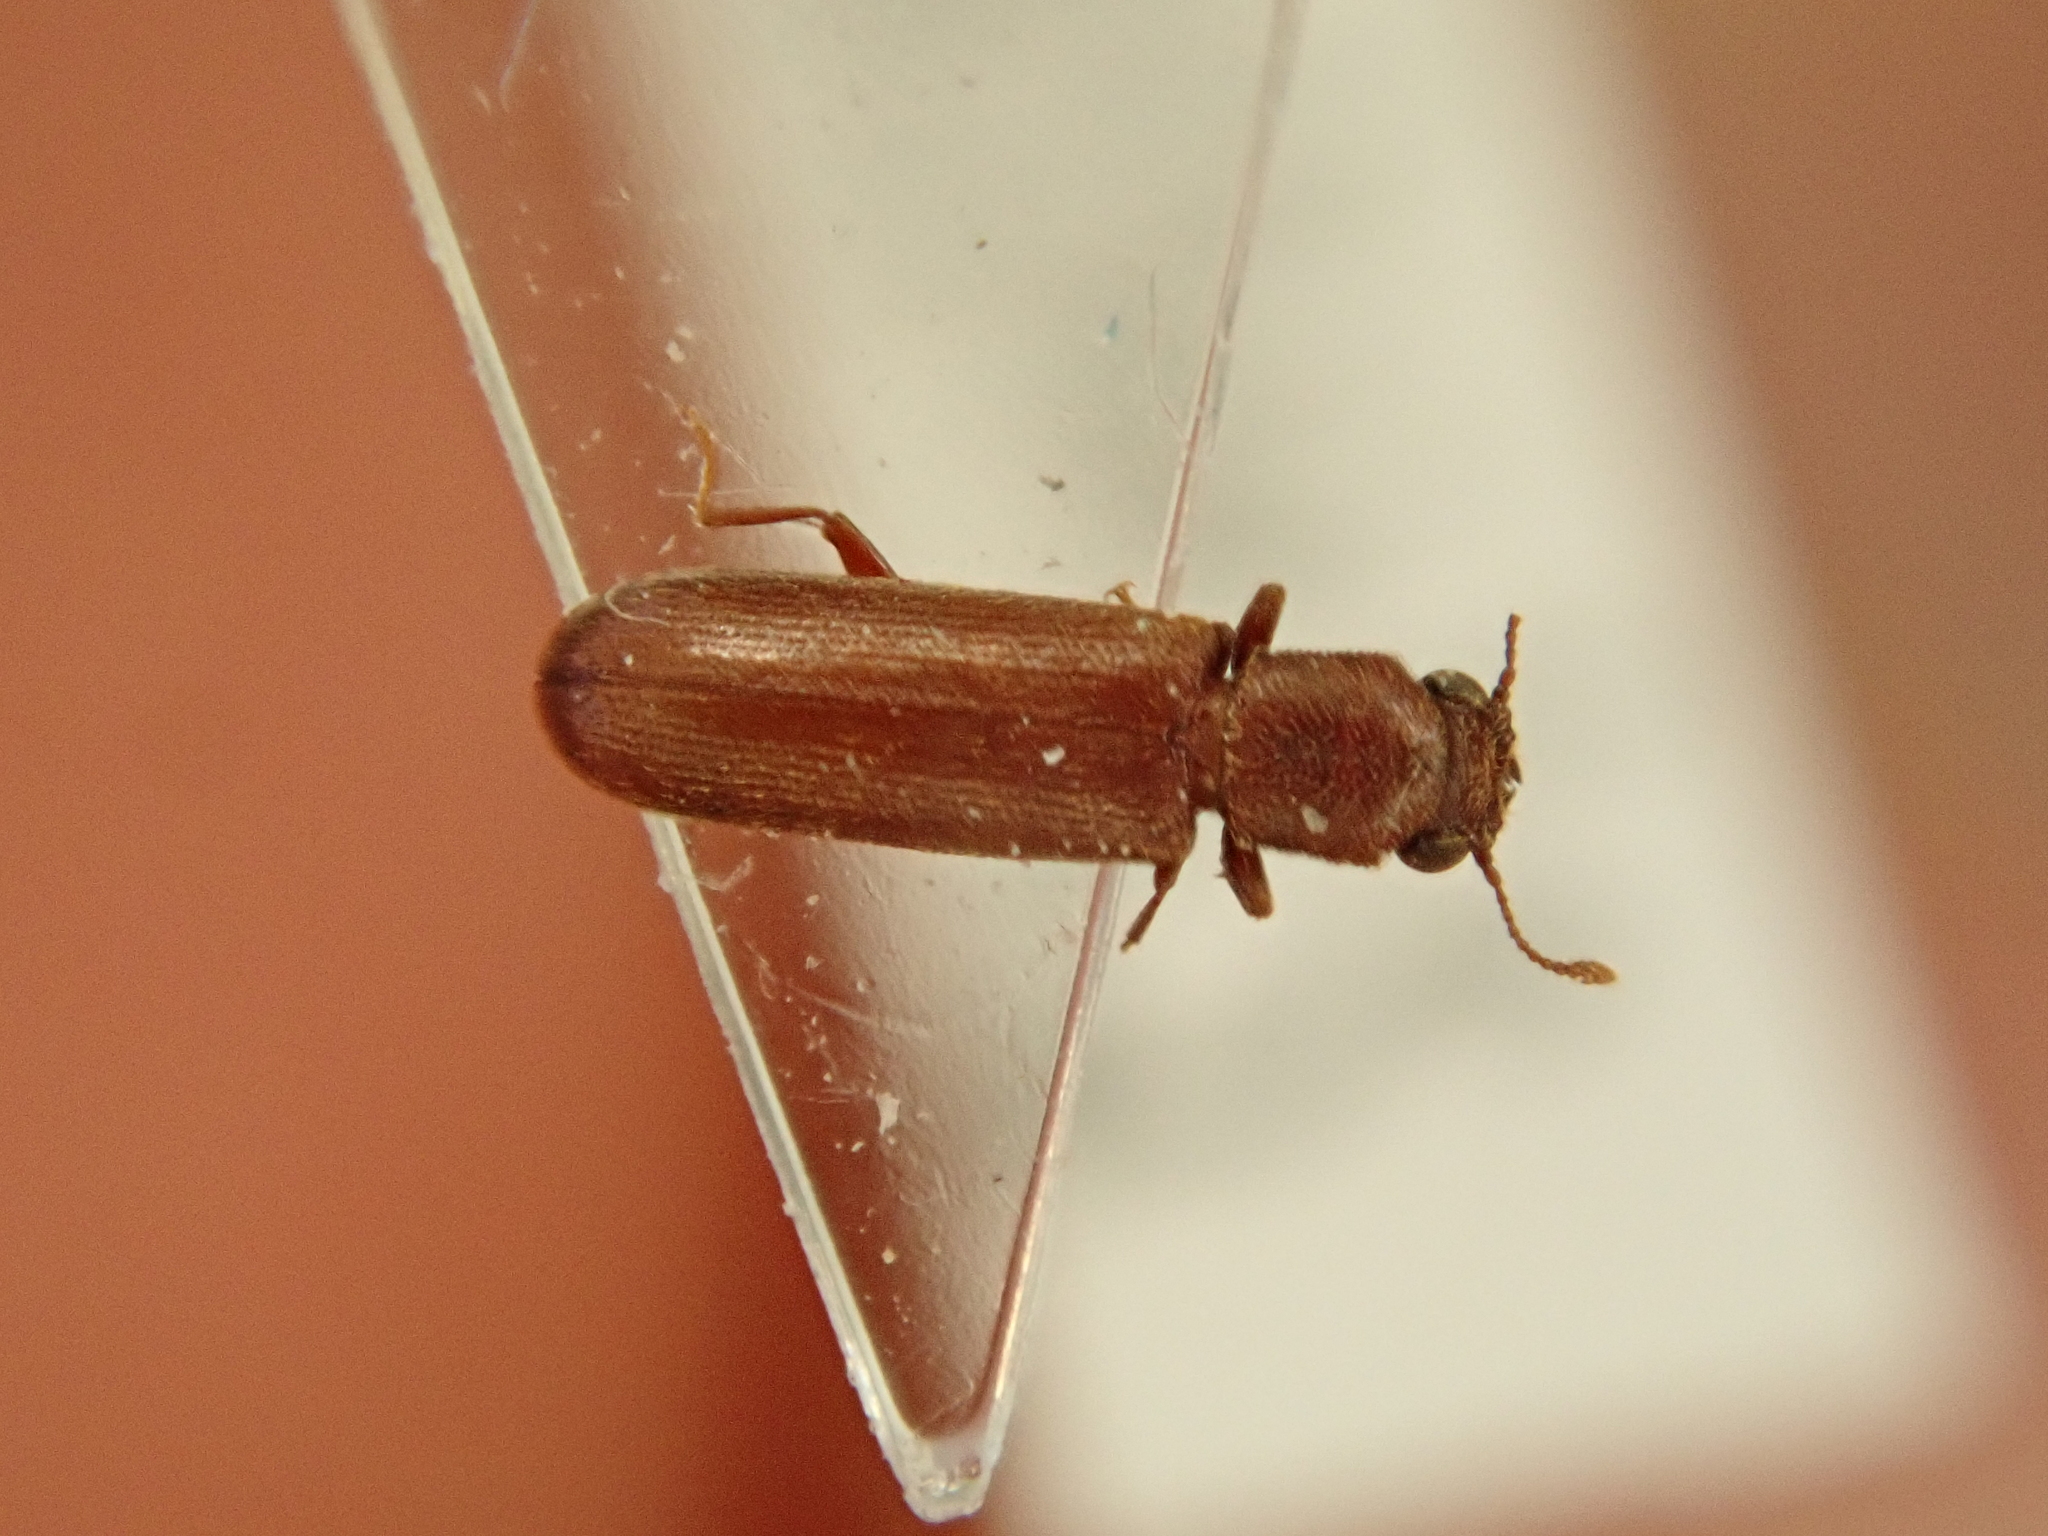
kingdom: Animalia
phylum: Arthropoda
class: Insecta
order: Coleoptera
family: Bostrichidae
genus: Lyctus
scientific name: Lyctus brunneus
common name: Brown powderpost beetle
